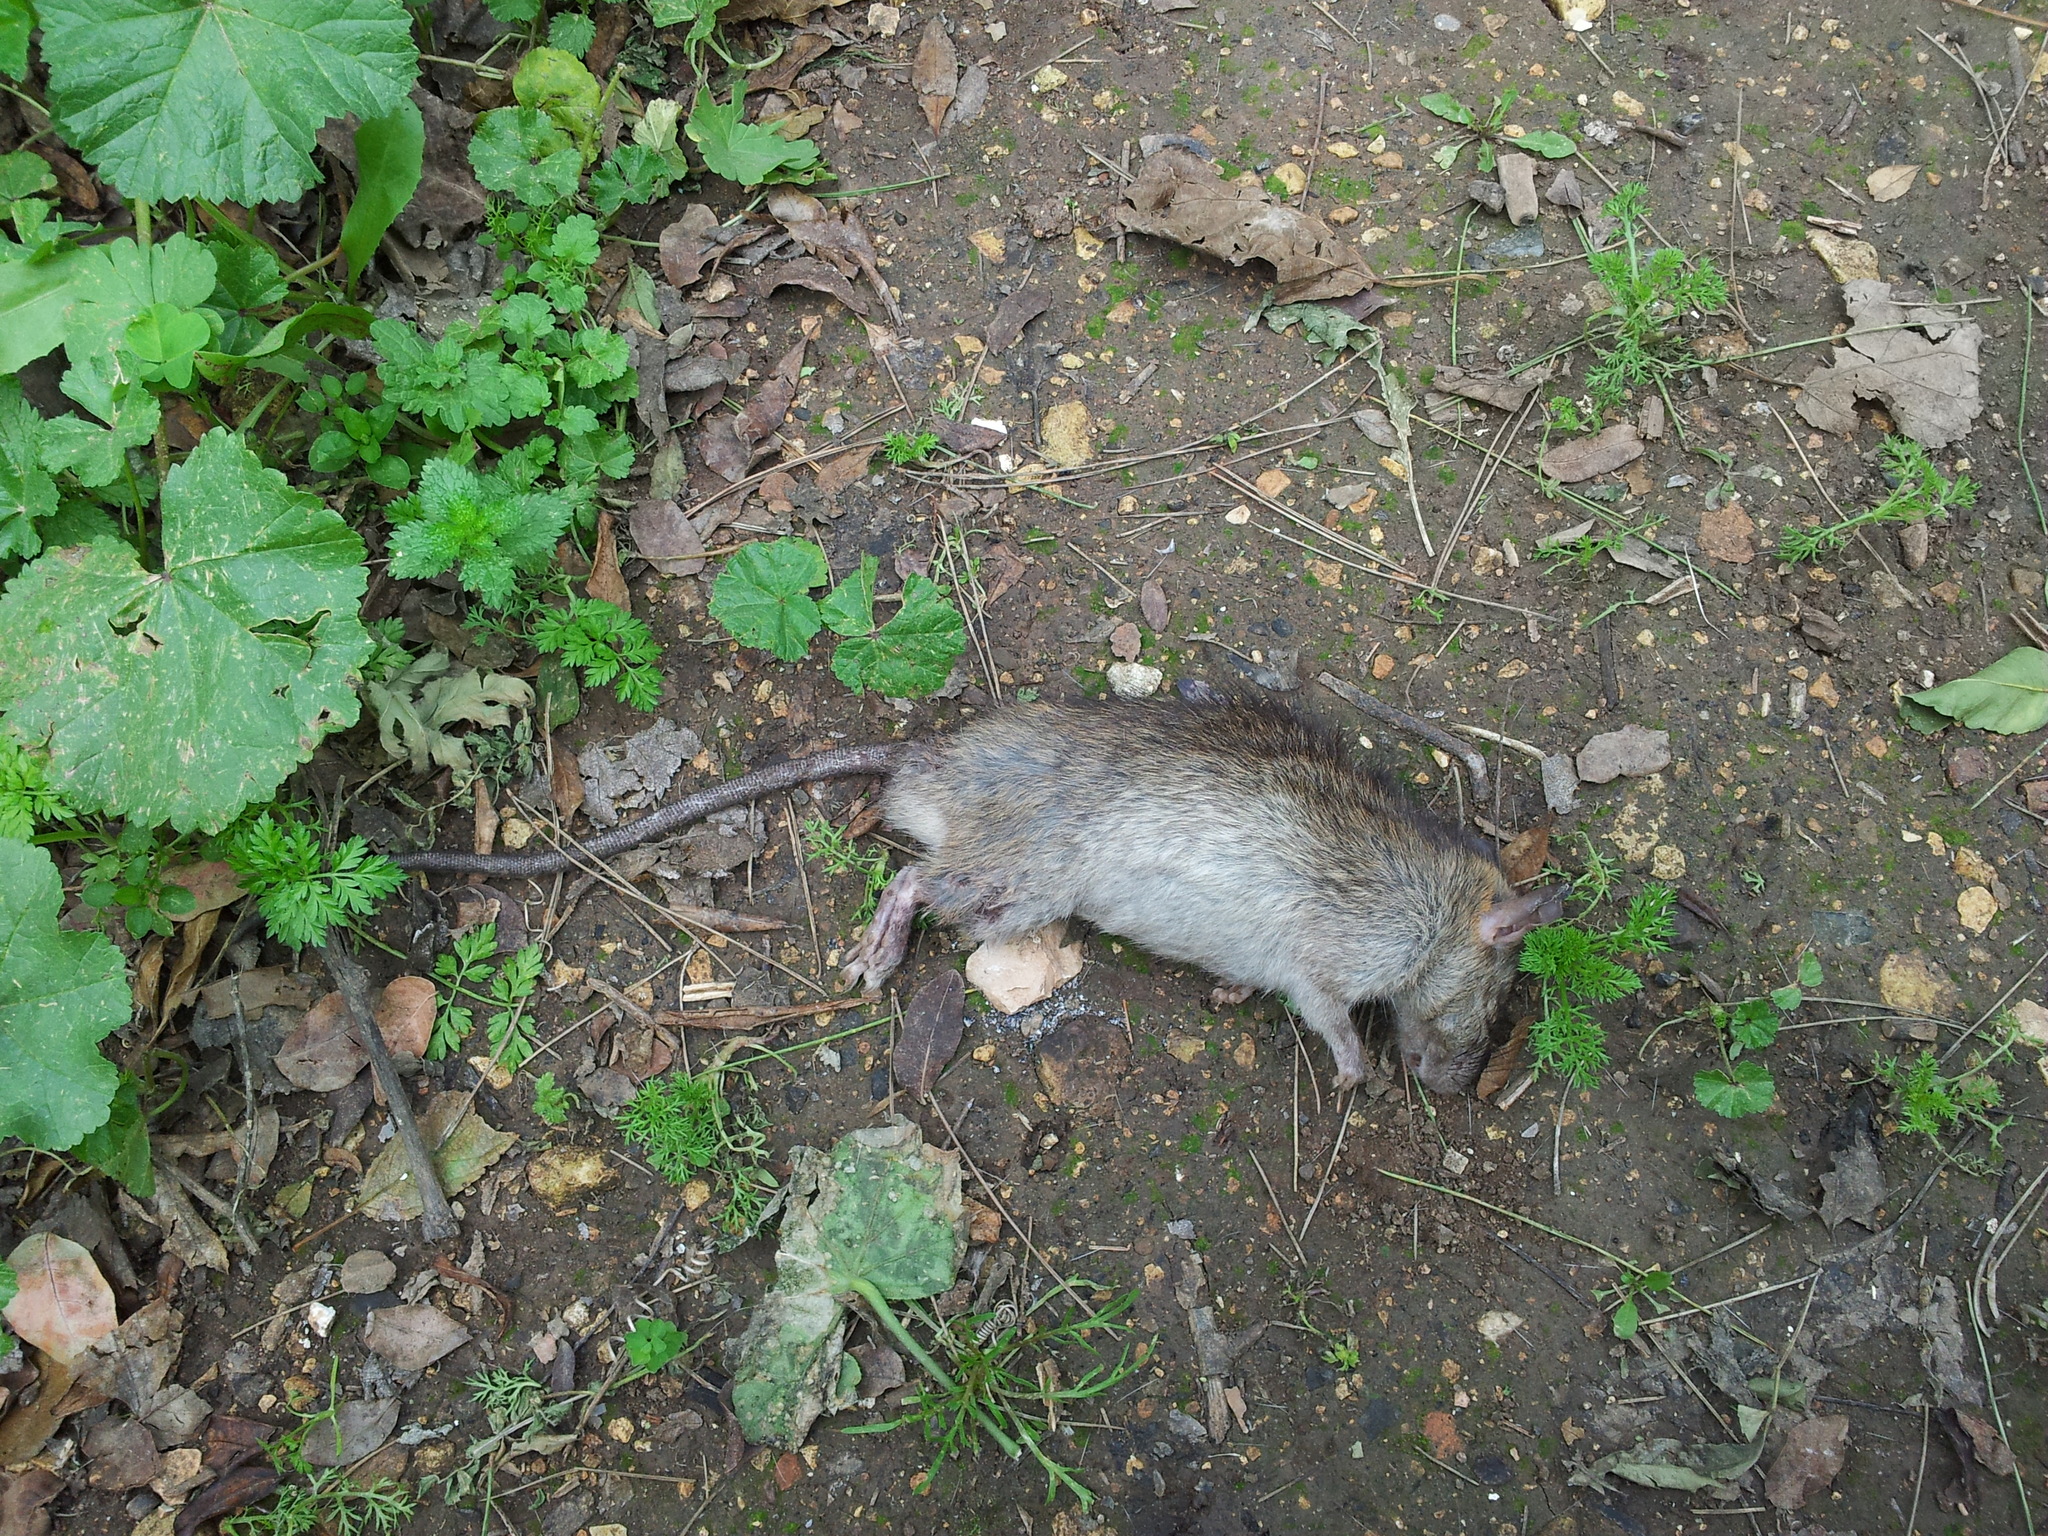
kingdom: Animalia
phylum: Chordata
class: Mammalia
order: Rodentia
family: Muridae
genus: Rattus
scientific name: Rattus rattus
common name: Black rat
